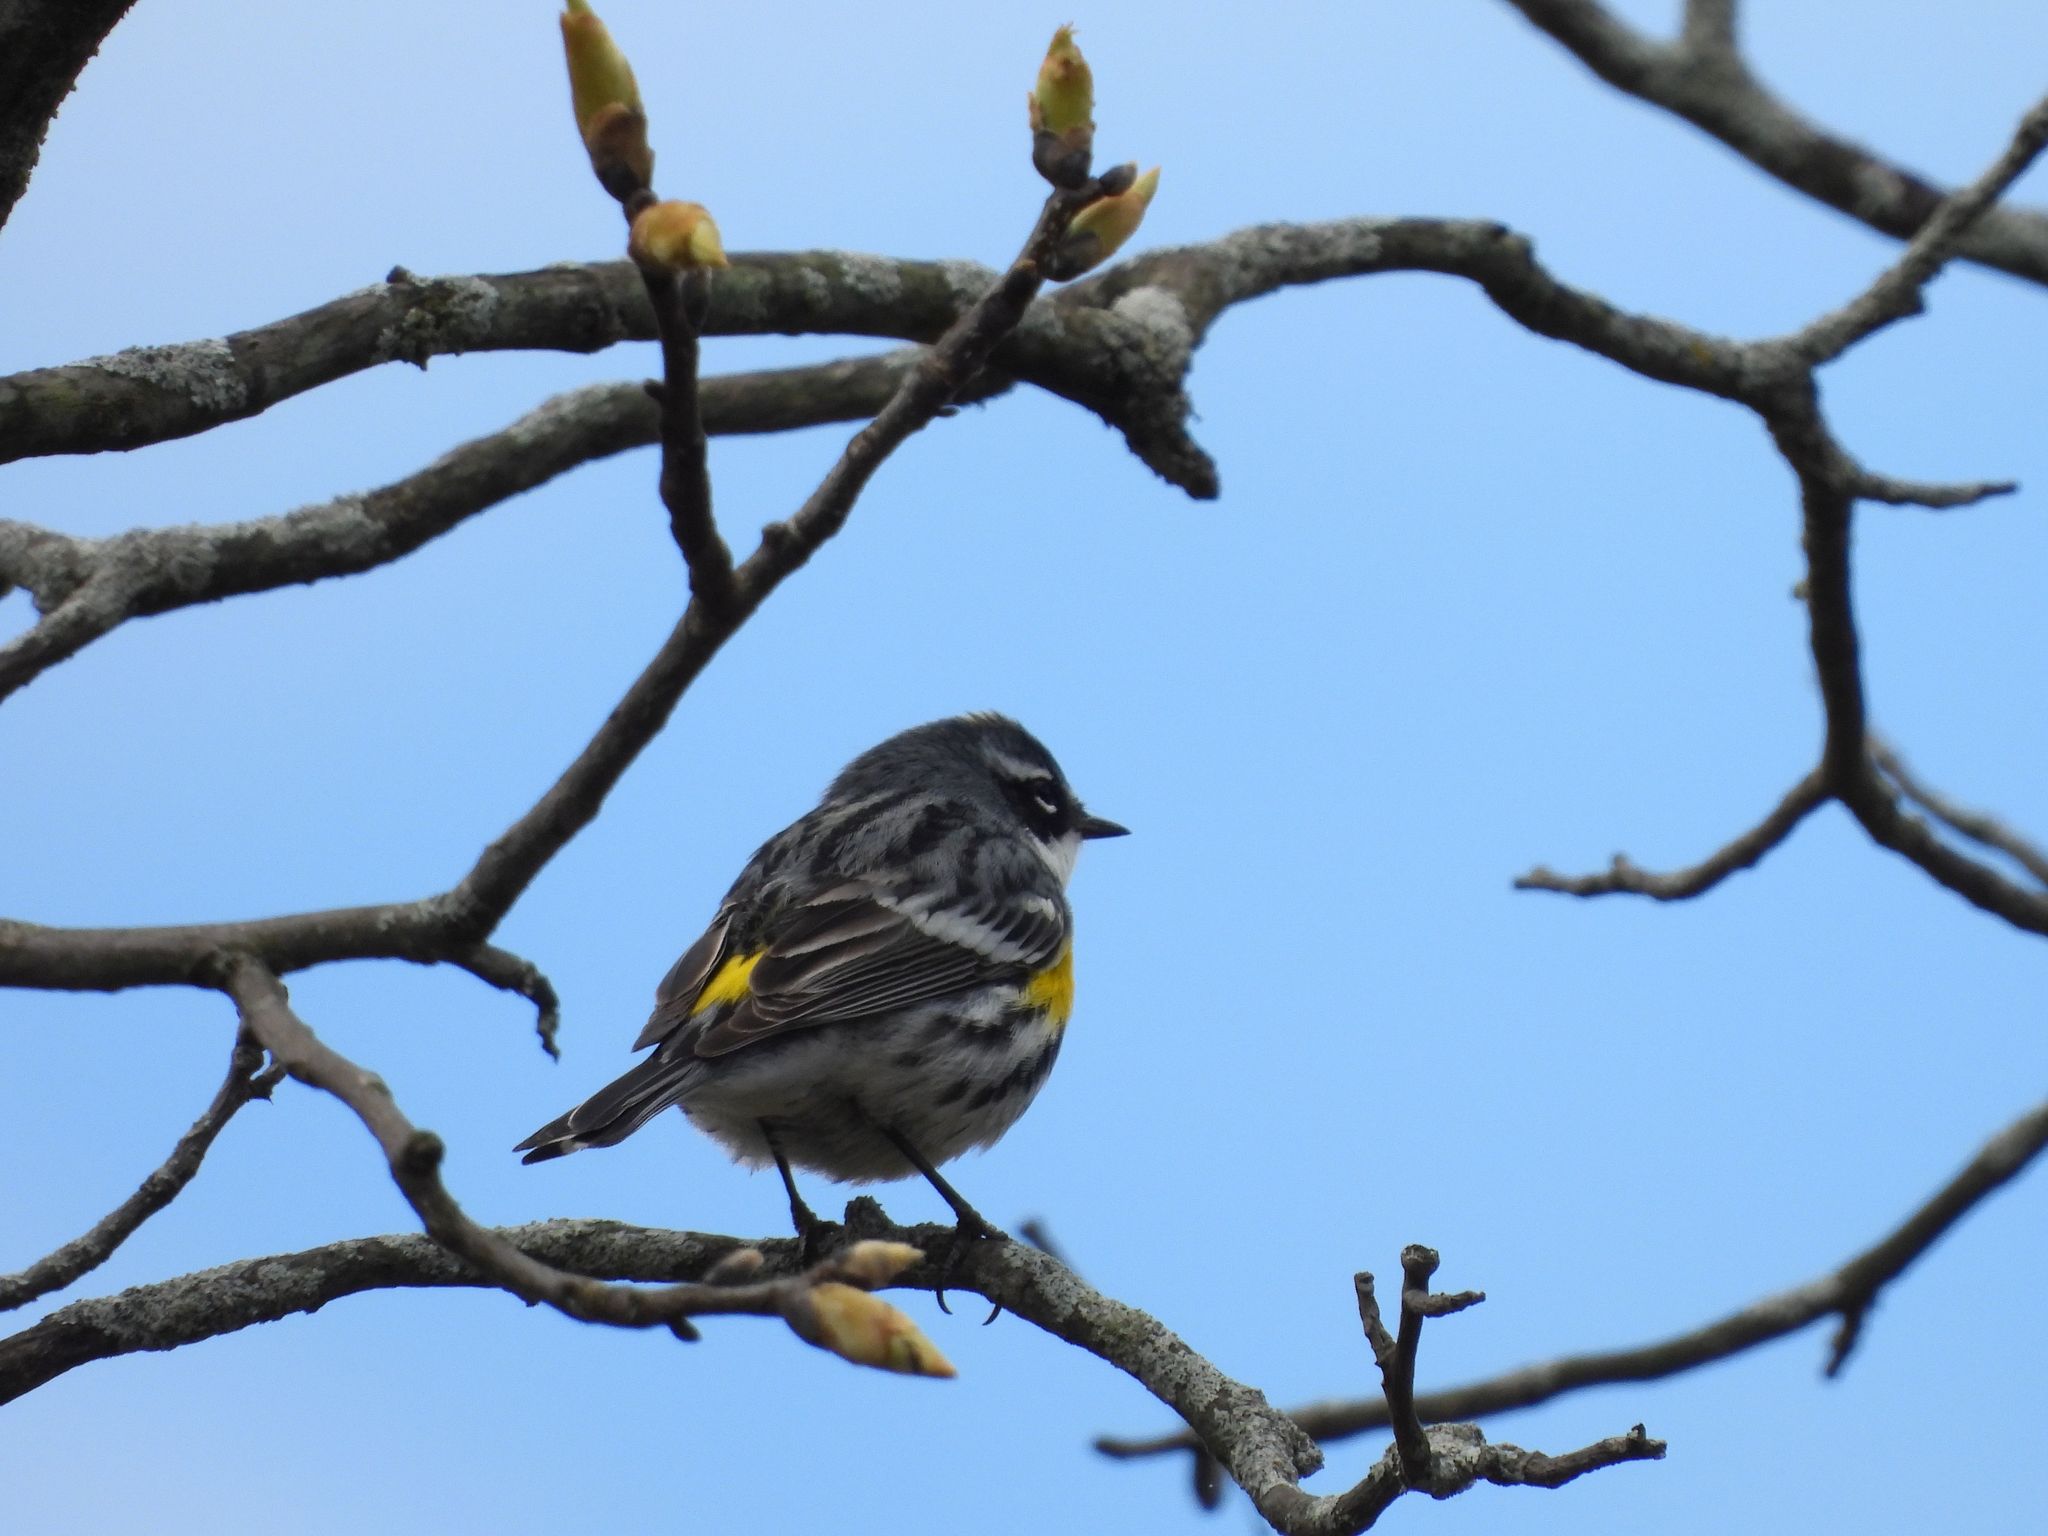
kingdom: Animalia
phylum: Chordata
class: Aves
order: Passeriformes
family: Parulidae
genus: Setophaga
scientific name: Setophaga coronata
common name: Myrtle warbler
